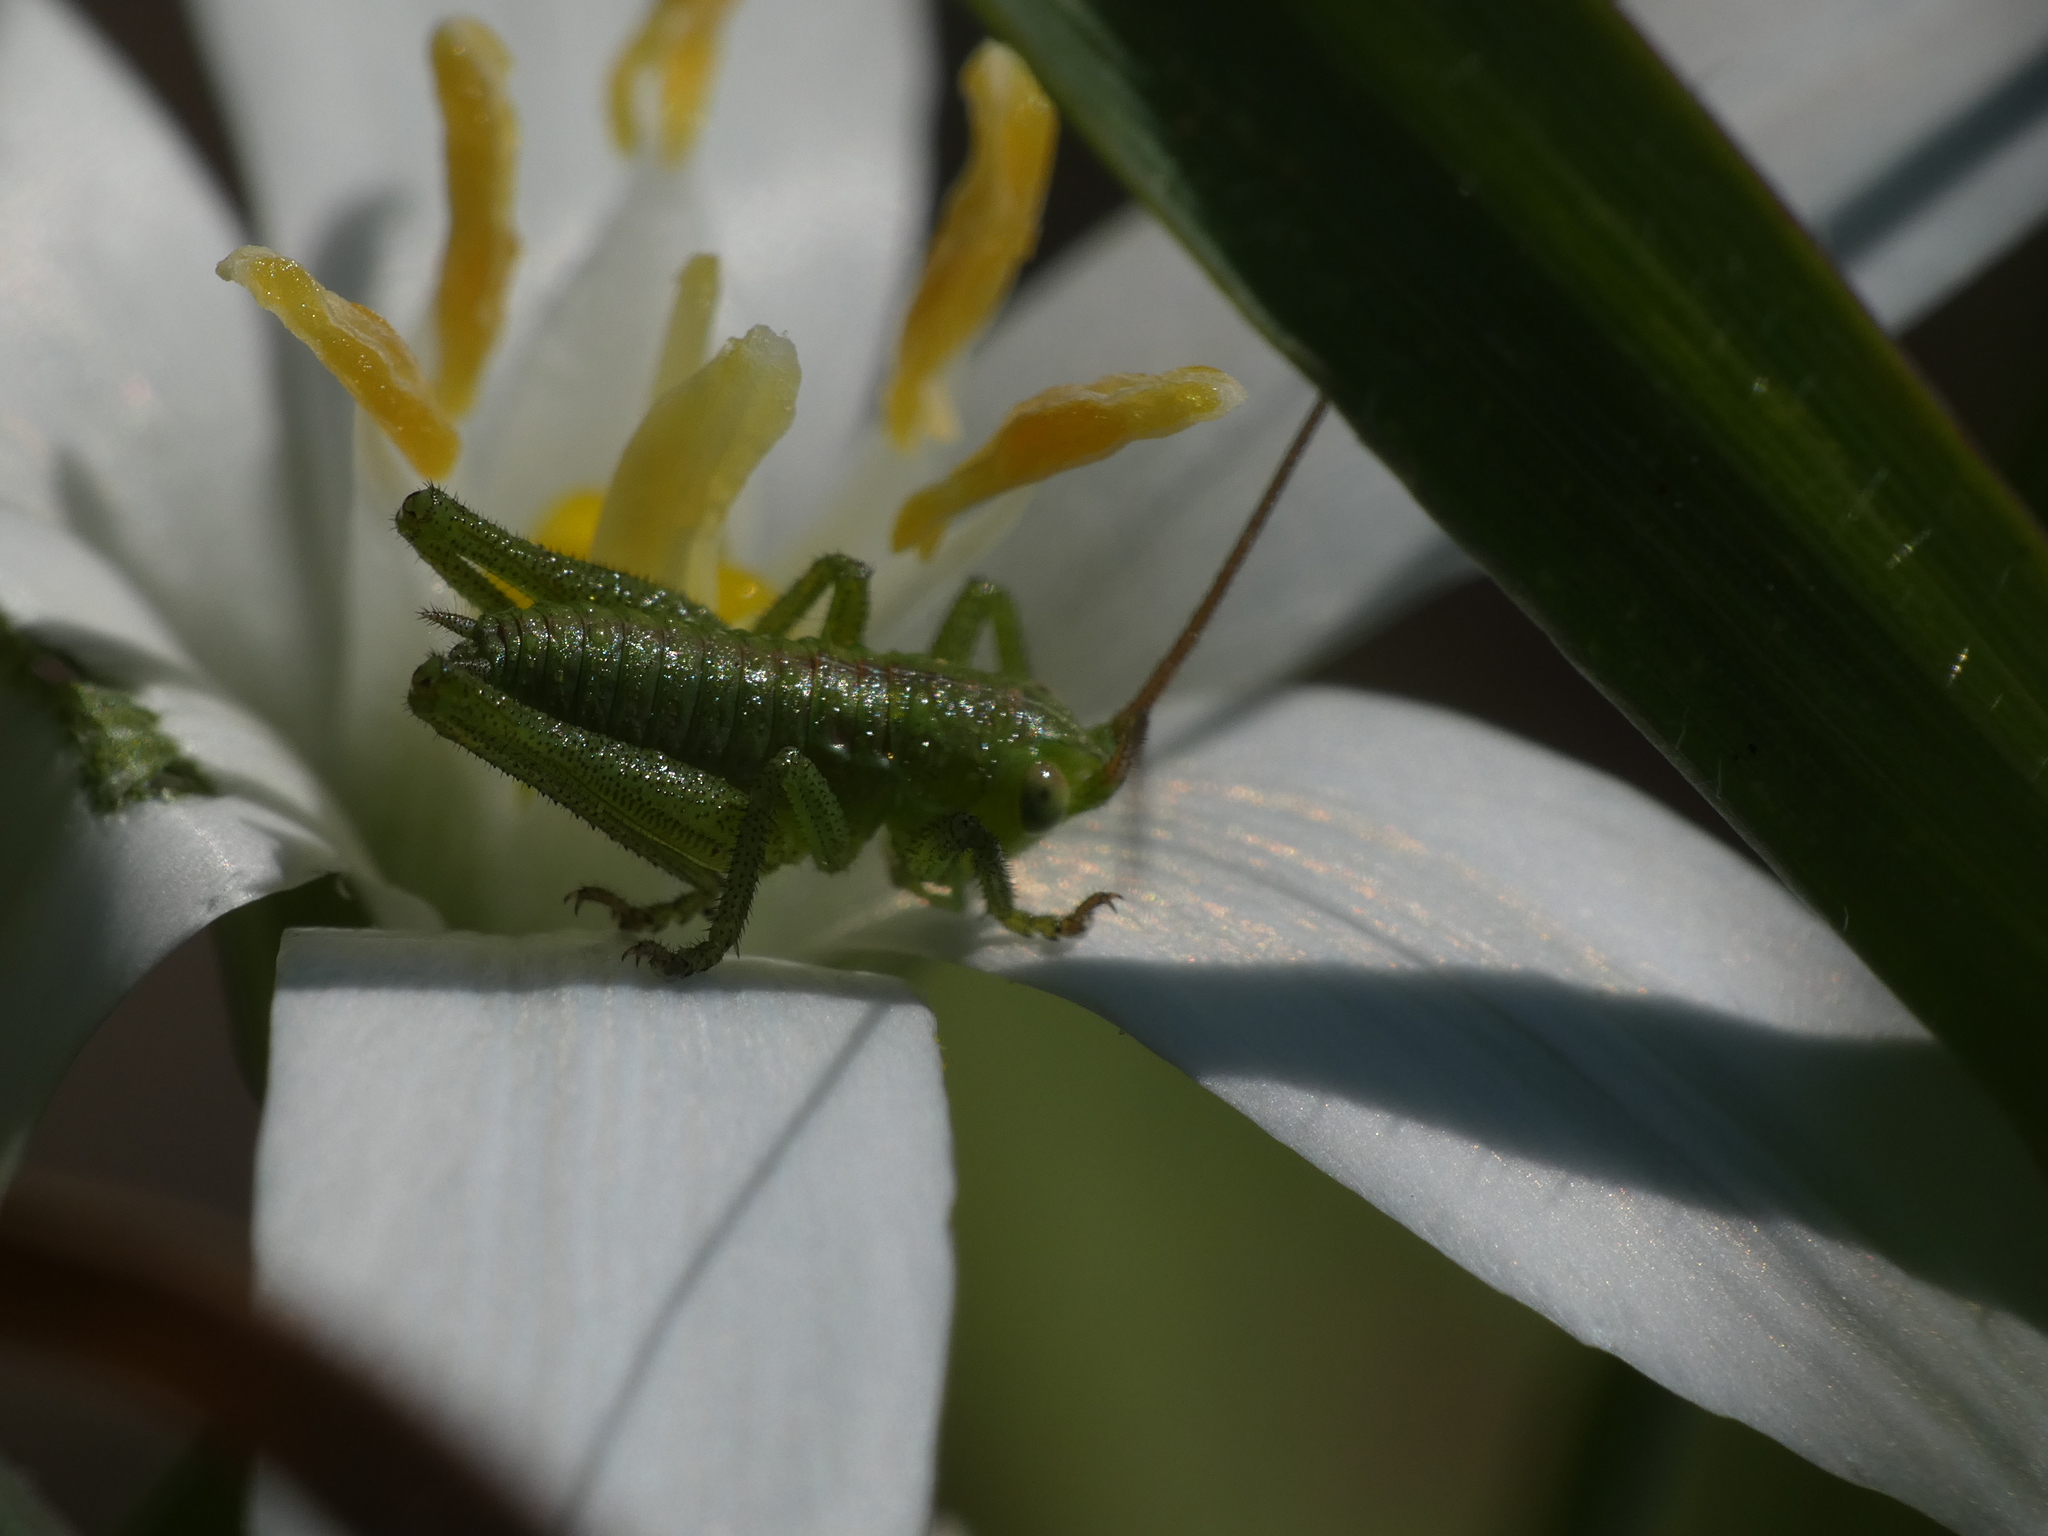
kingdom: Animalia
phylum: Arthropoda
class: Insecta
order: Orthoptera
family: Tettigoniidae
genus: Tettigonia
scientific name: Tettigonia viridissima
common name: Great green bush-cricket
